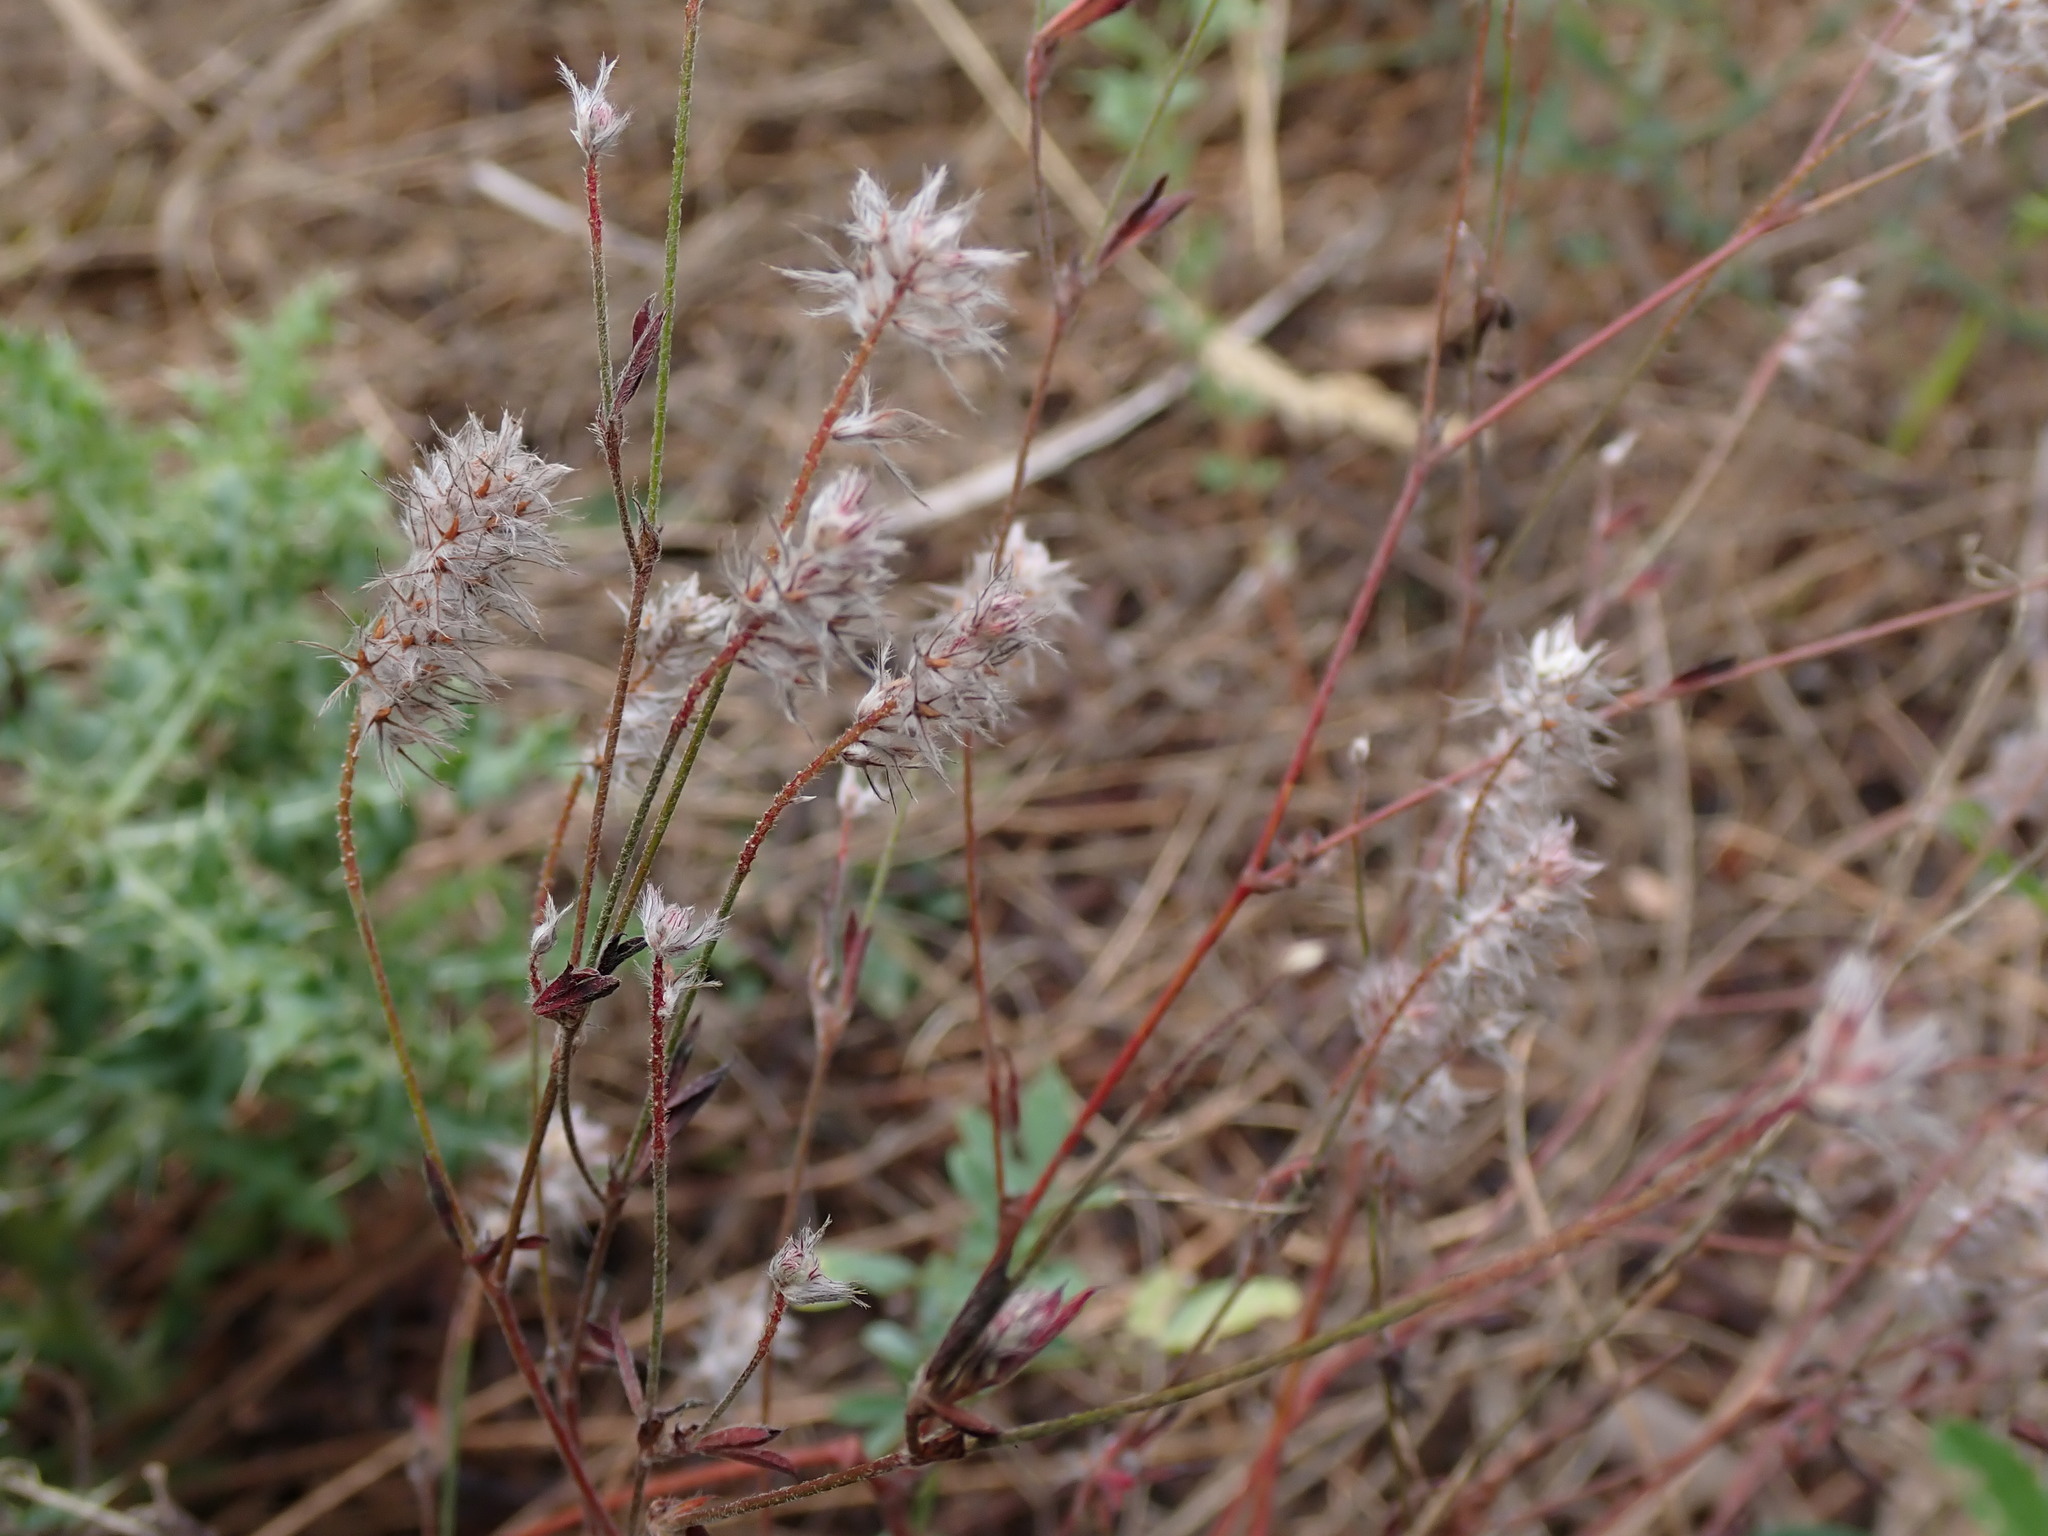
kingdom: Plantae
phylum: Tracheophyta
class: Magnoliopsida
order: Fabales
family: Fabaceae
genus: Trifolium
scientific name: Trifolium arvense
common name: Hare's-foot clover
